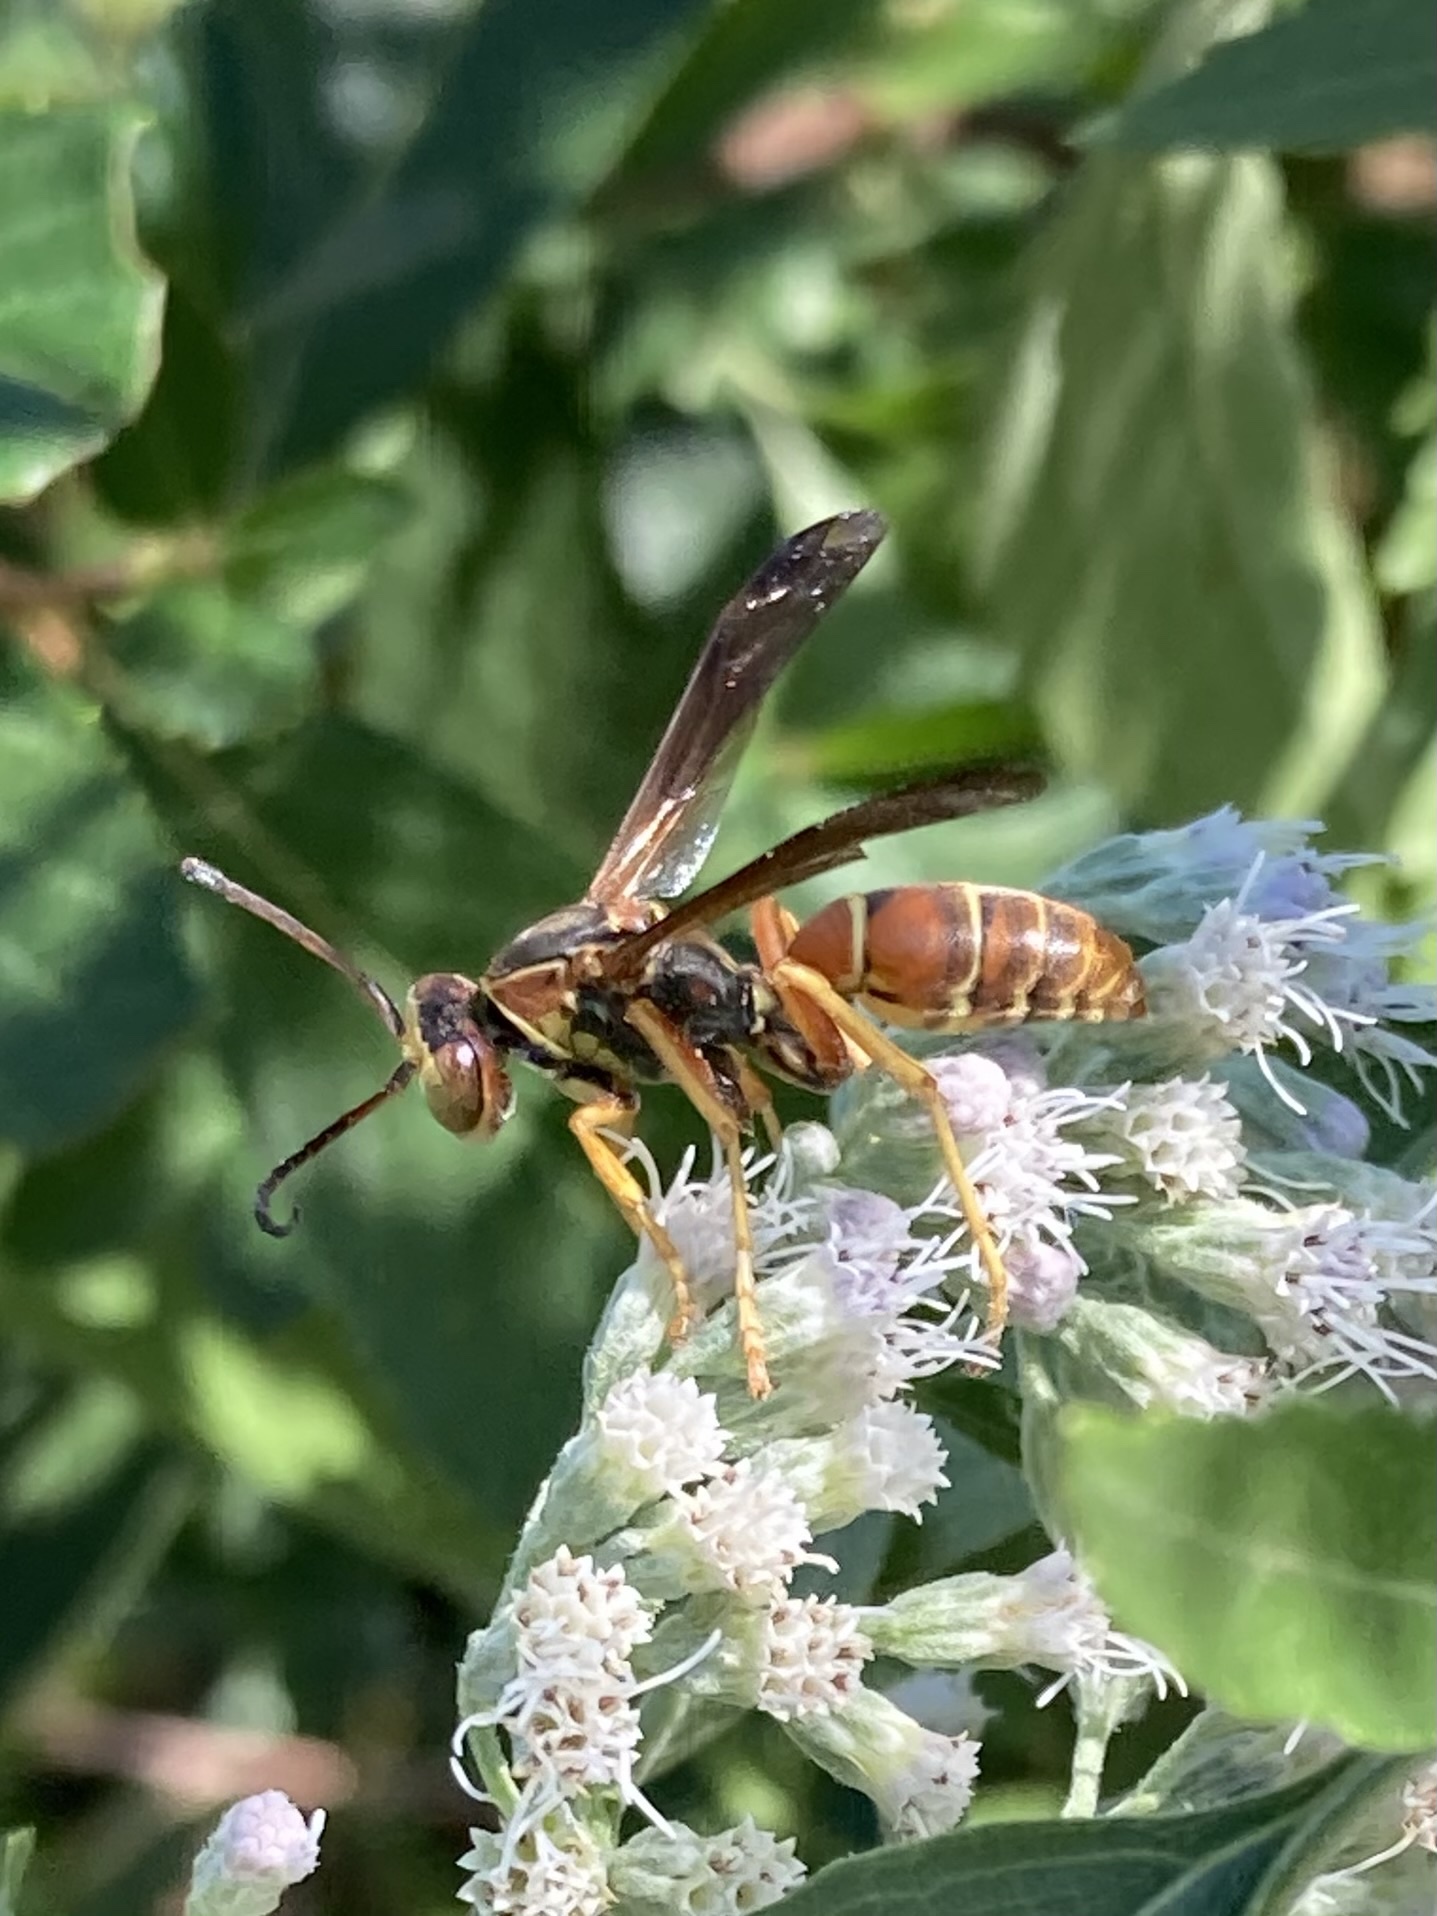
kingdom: Animalia
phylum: Arthropoda
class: Insecta
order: Hymenoptera
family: Eumenidae
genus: Polistes
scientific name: Polistes fuscatus
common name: Dark paper wasp
